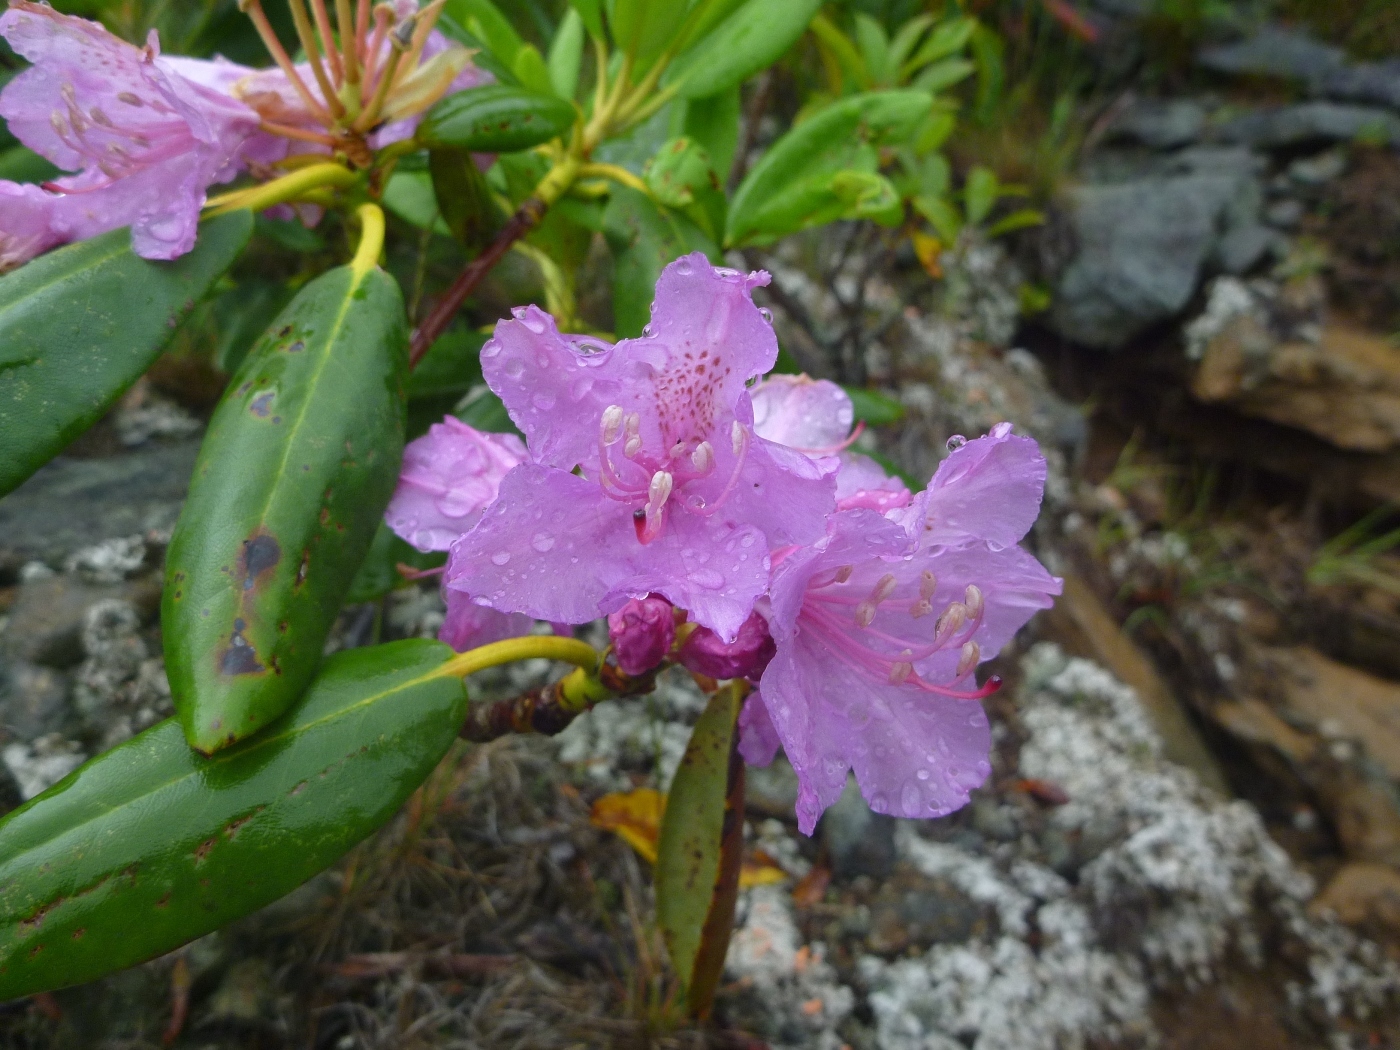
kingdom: Plantae
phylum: Tracheophyta
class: Magnoliopsida
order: Ericales
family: Ericaceae
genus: Rhododendron
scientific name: Rhododendron catawbiense
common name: Catawba rhododendron
